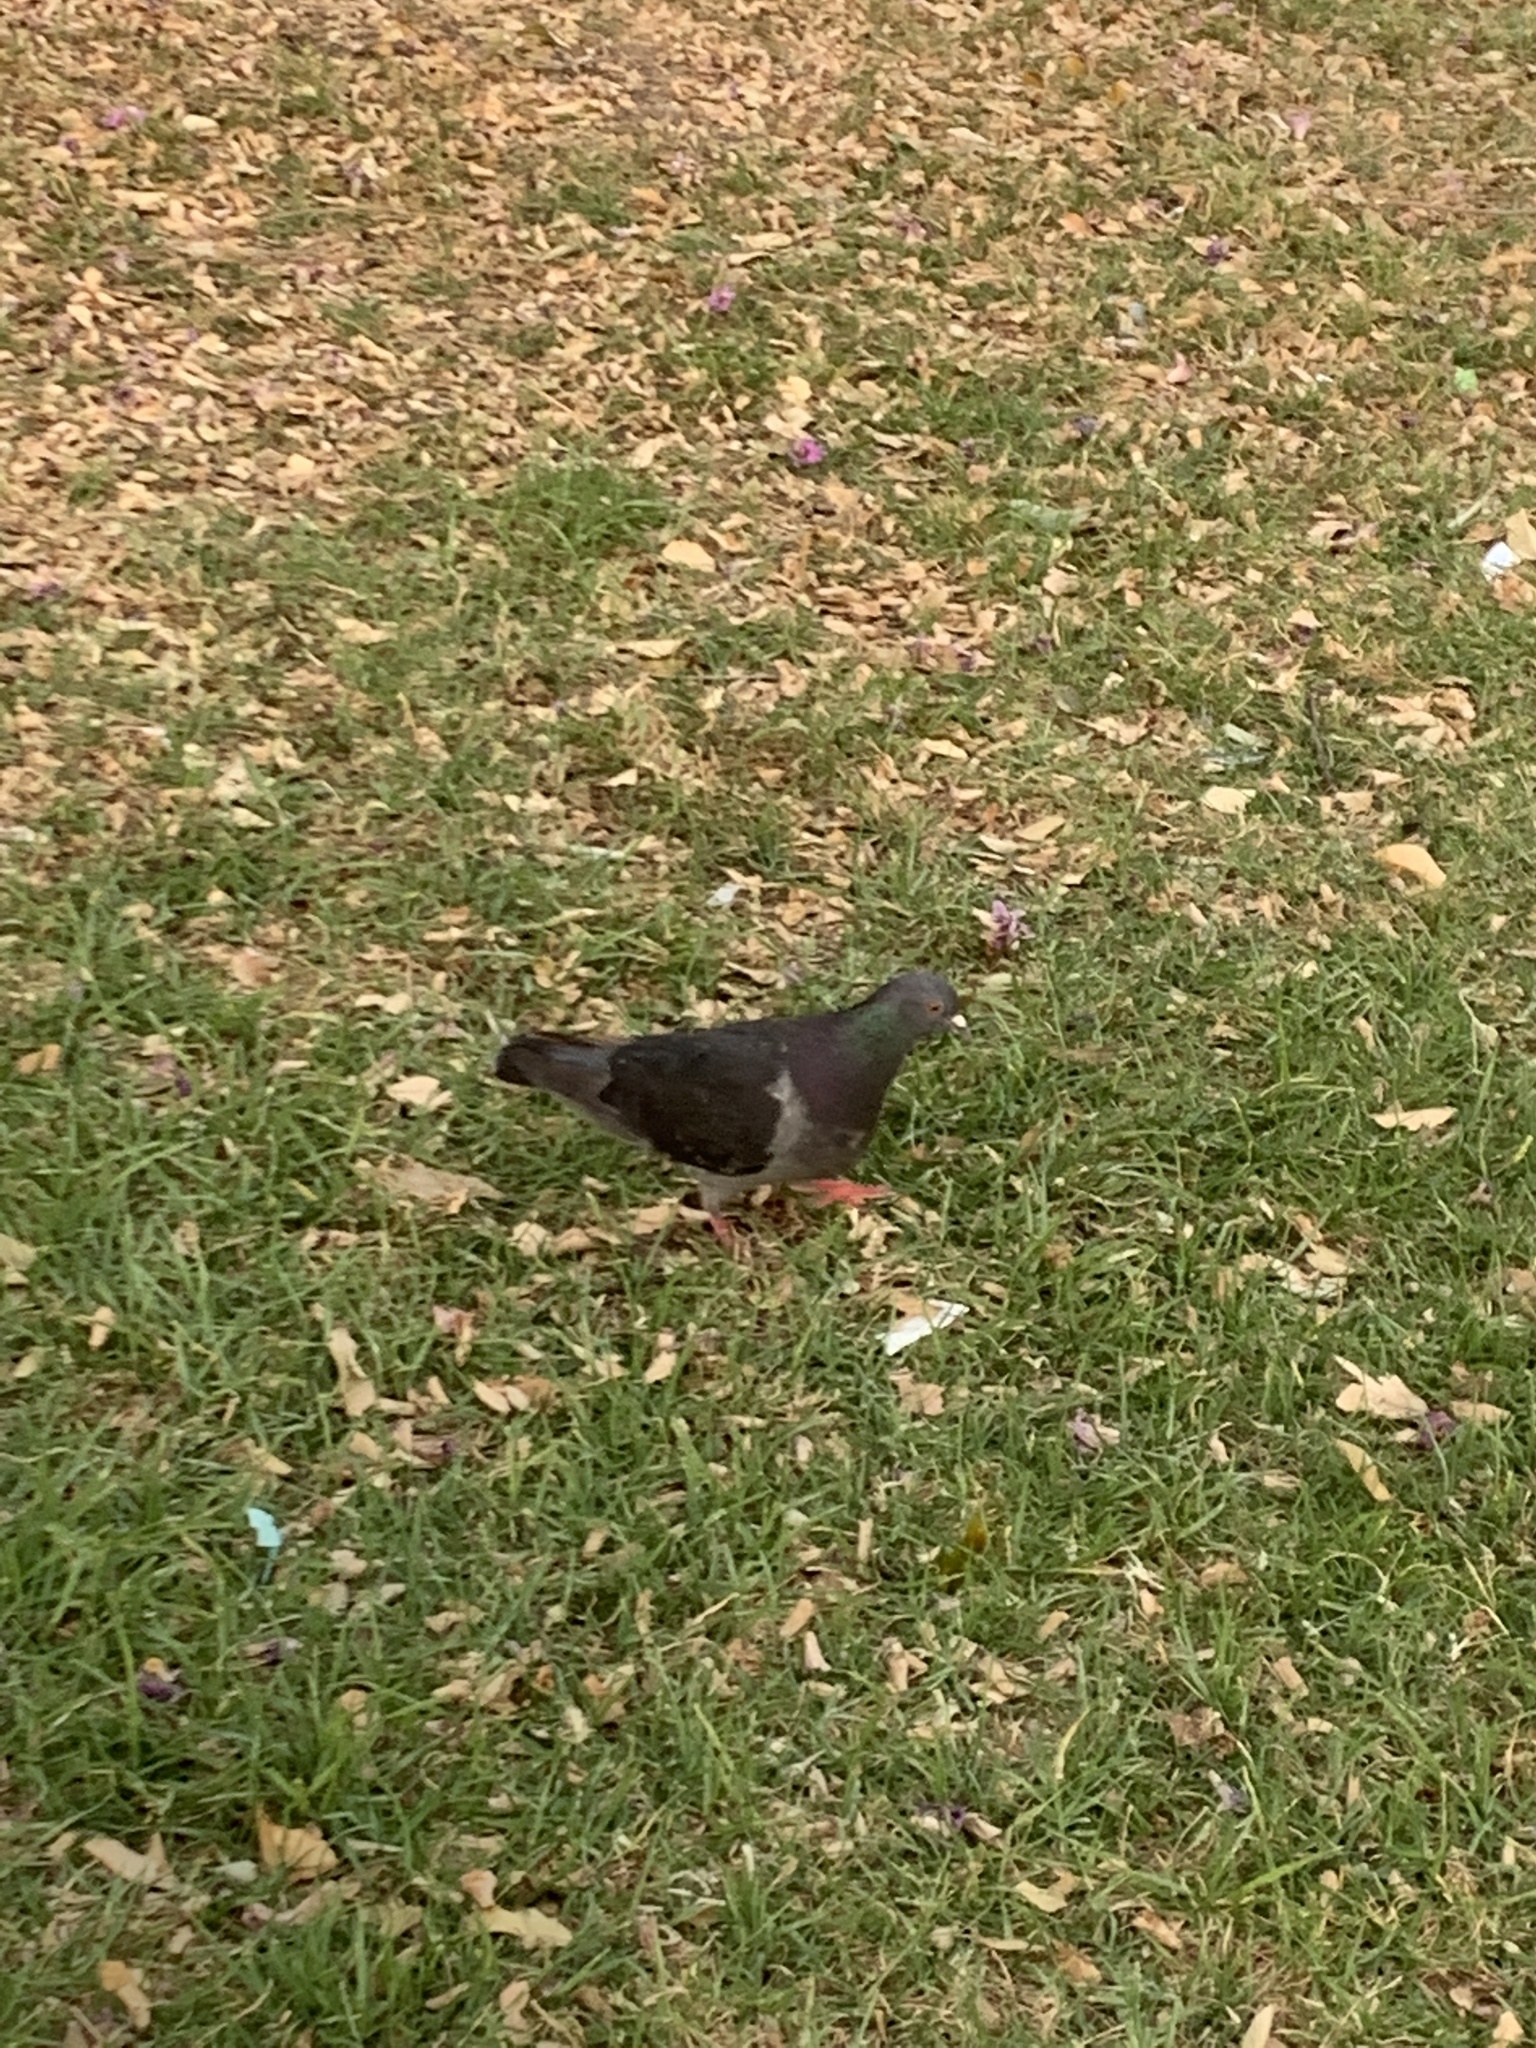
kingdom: Animalia
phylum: Chordata
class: Aves
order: Columbiformes
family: Columbidae
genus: Columba
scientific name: Columba livia
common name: Rock pigeon
